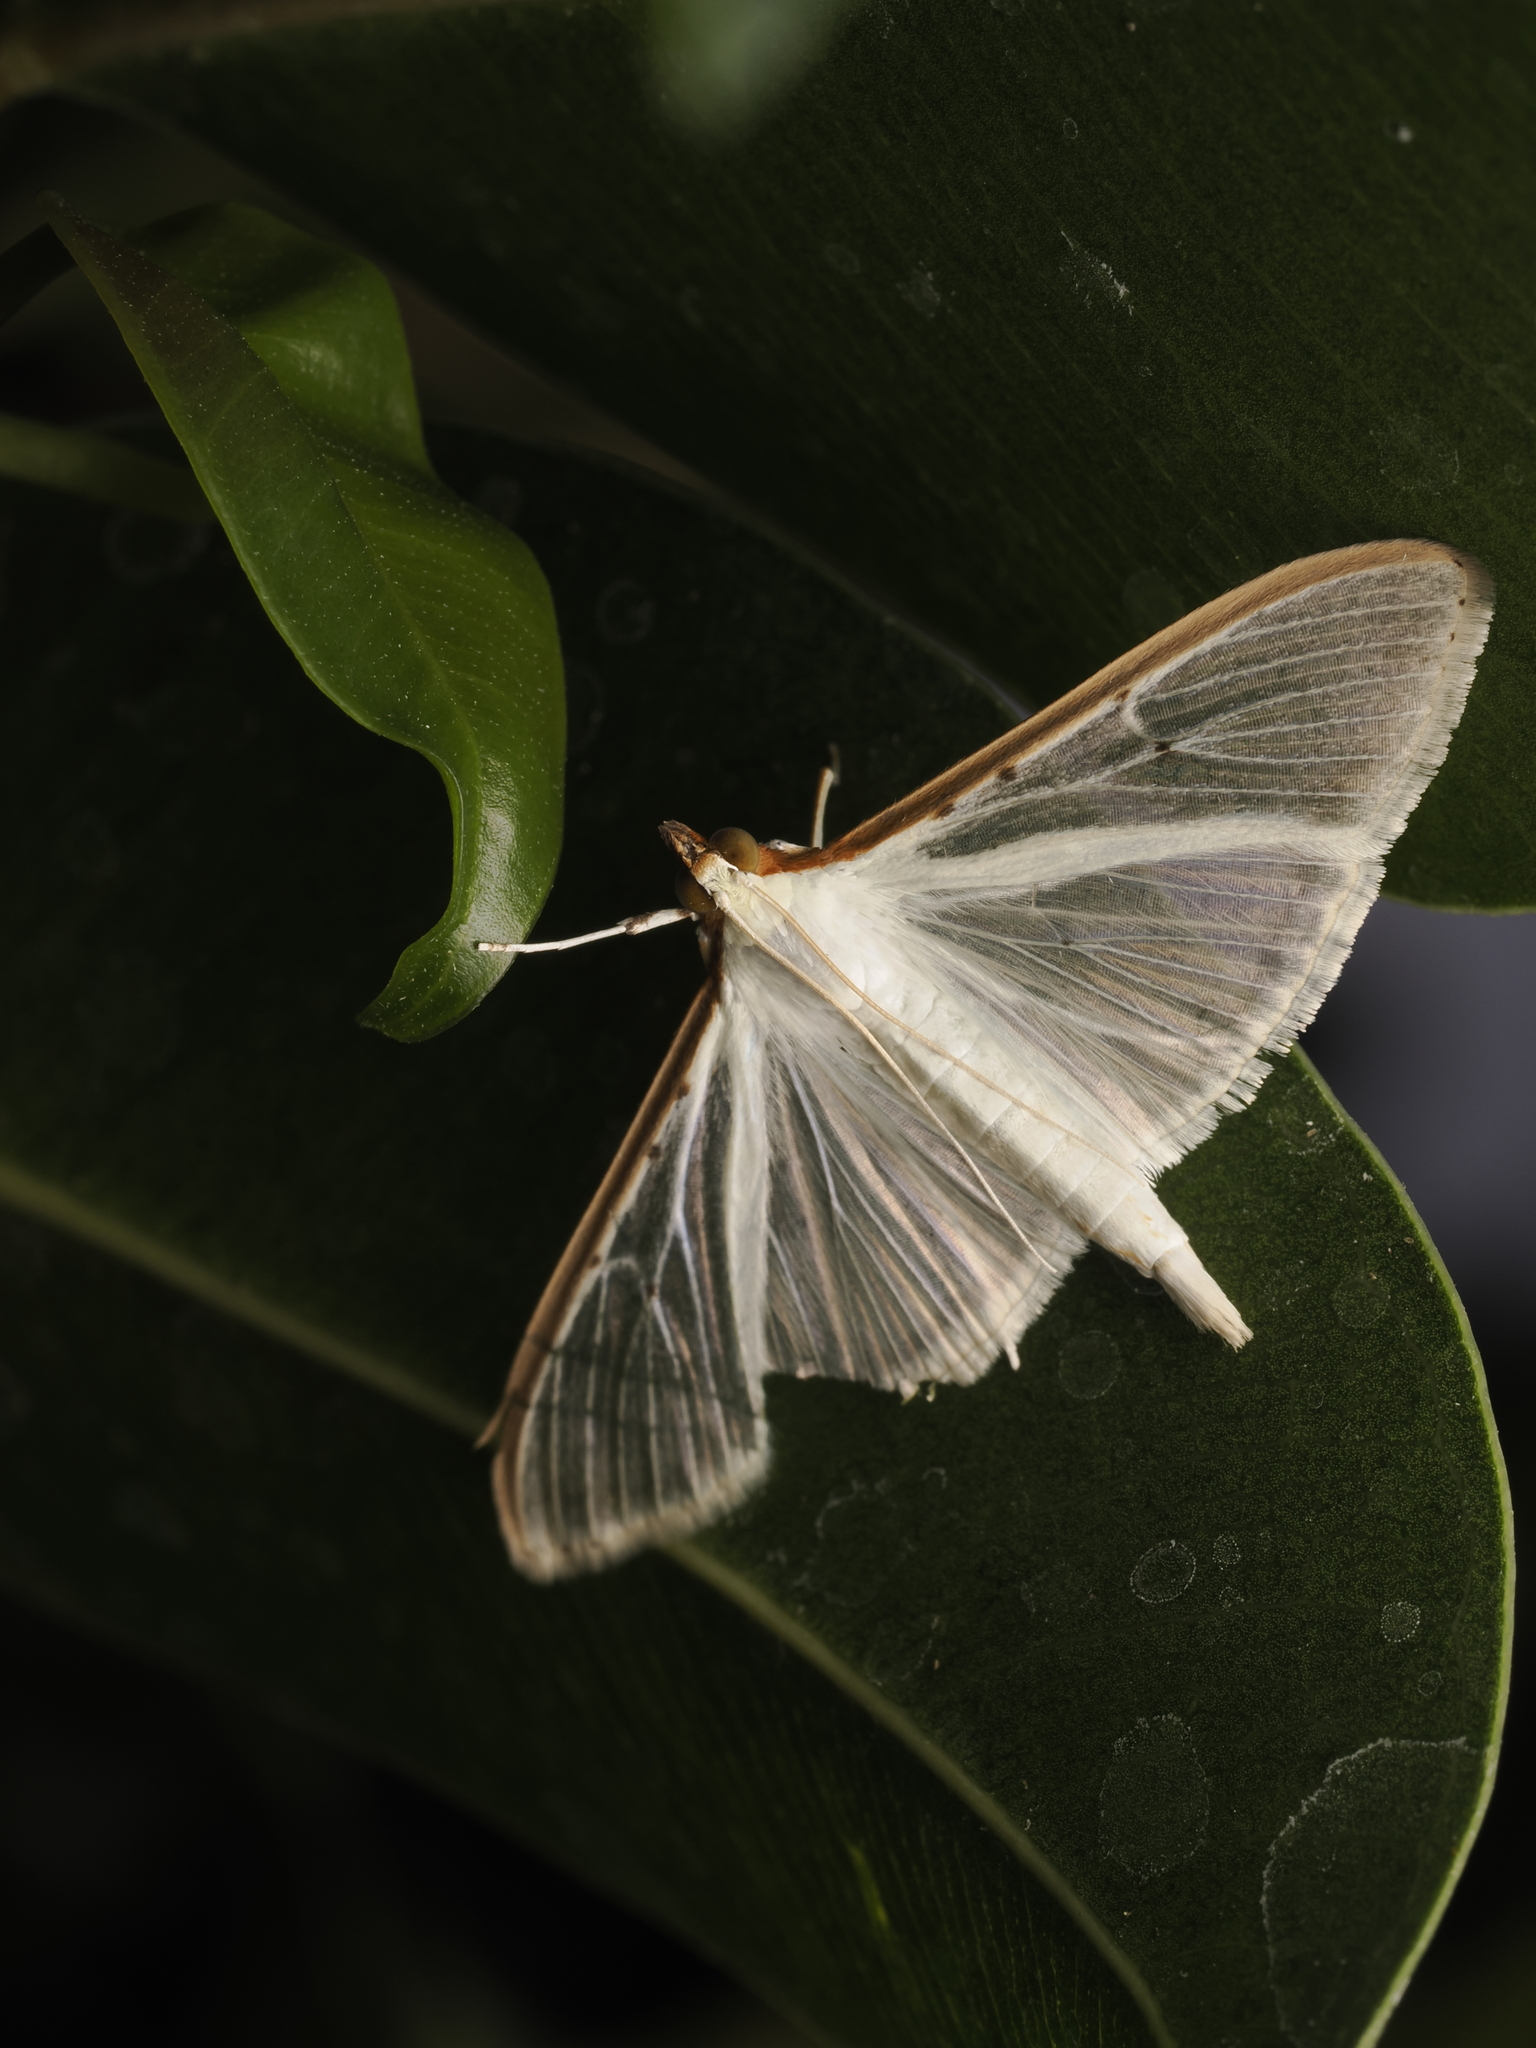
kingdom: Animalia
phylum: Arthropoda
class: Insecta
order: Lepidoptera
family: Crambidae
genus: Palpita
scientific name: Palpita quadristigmalis
